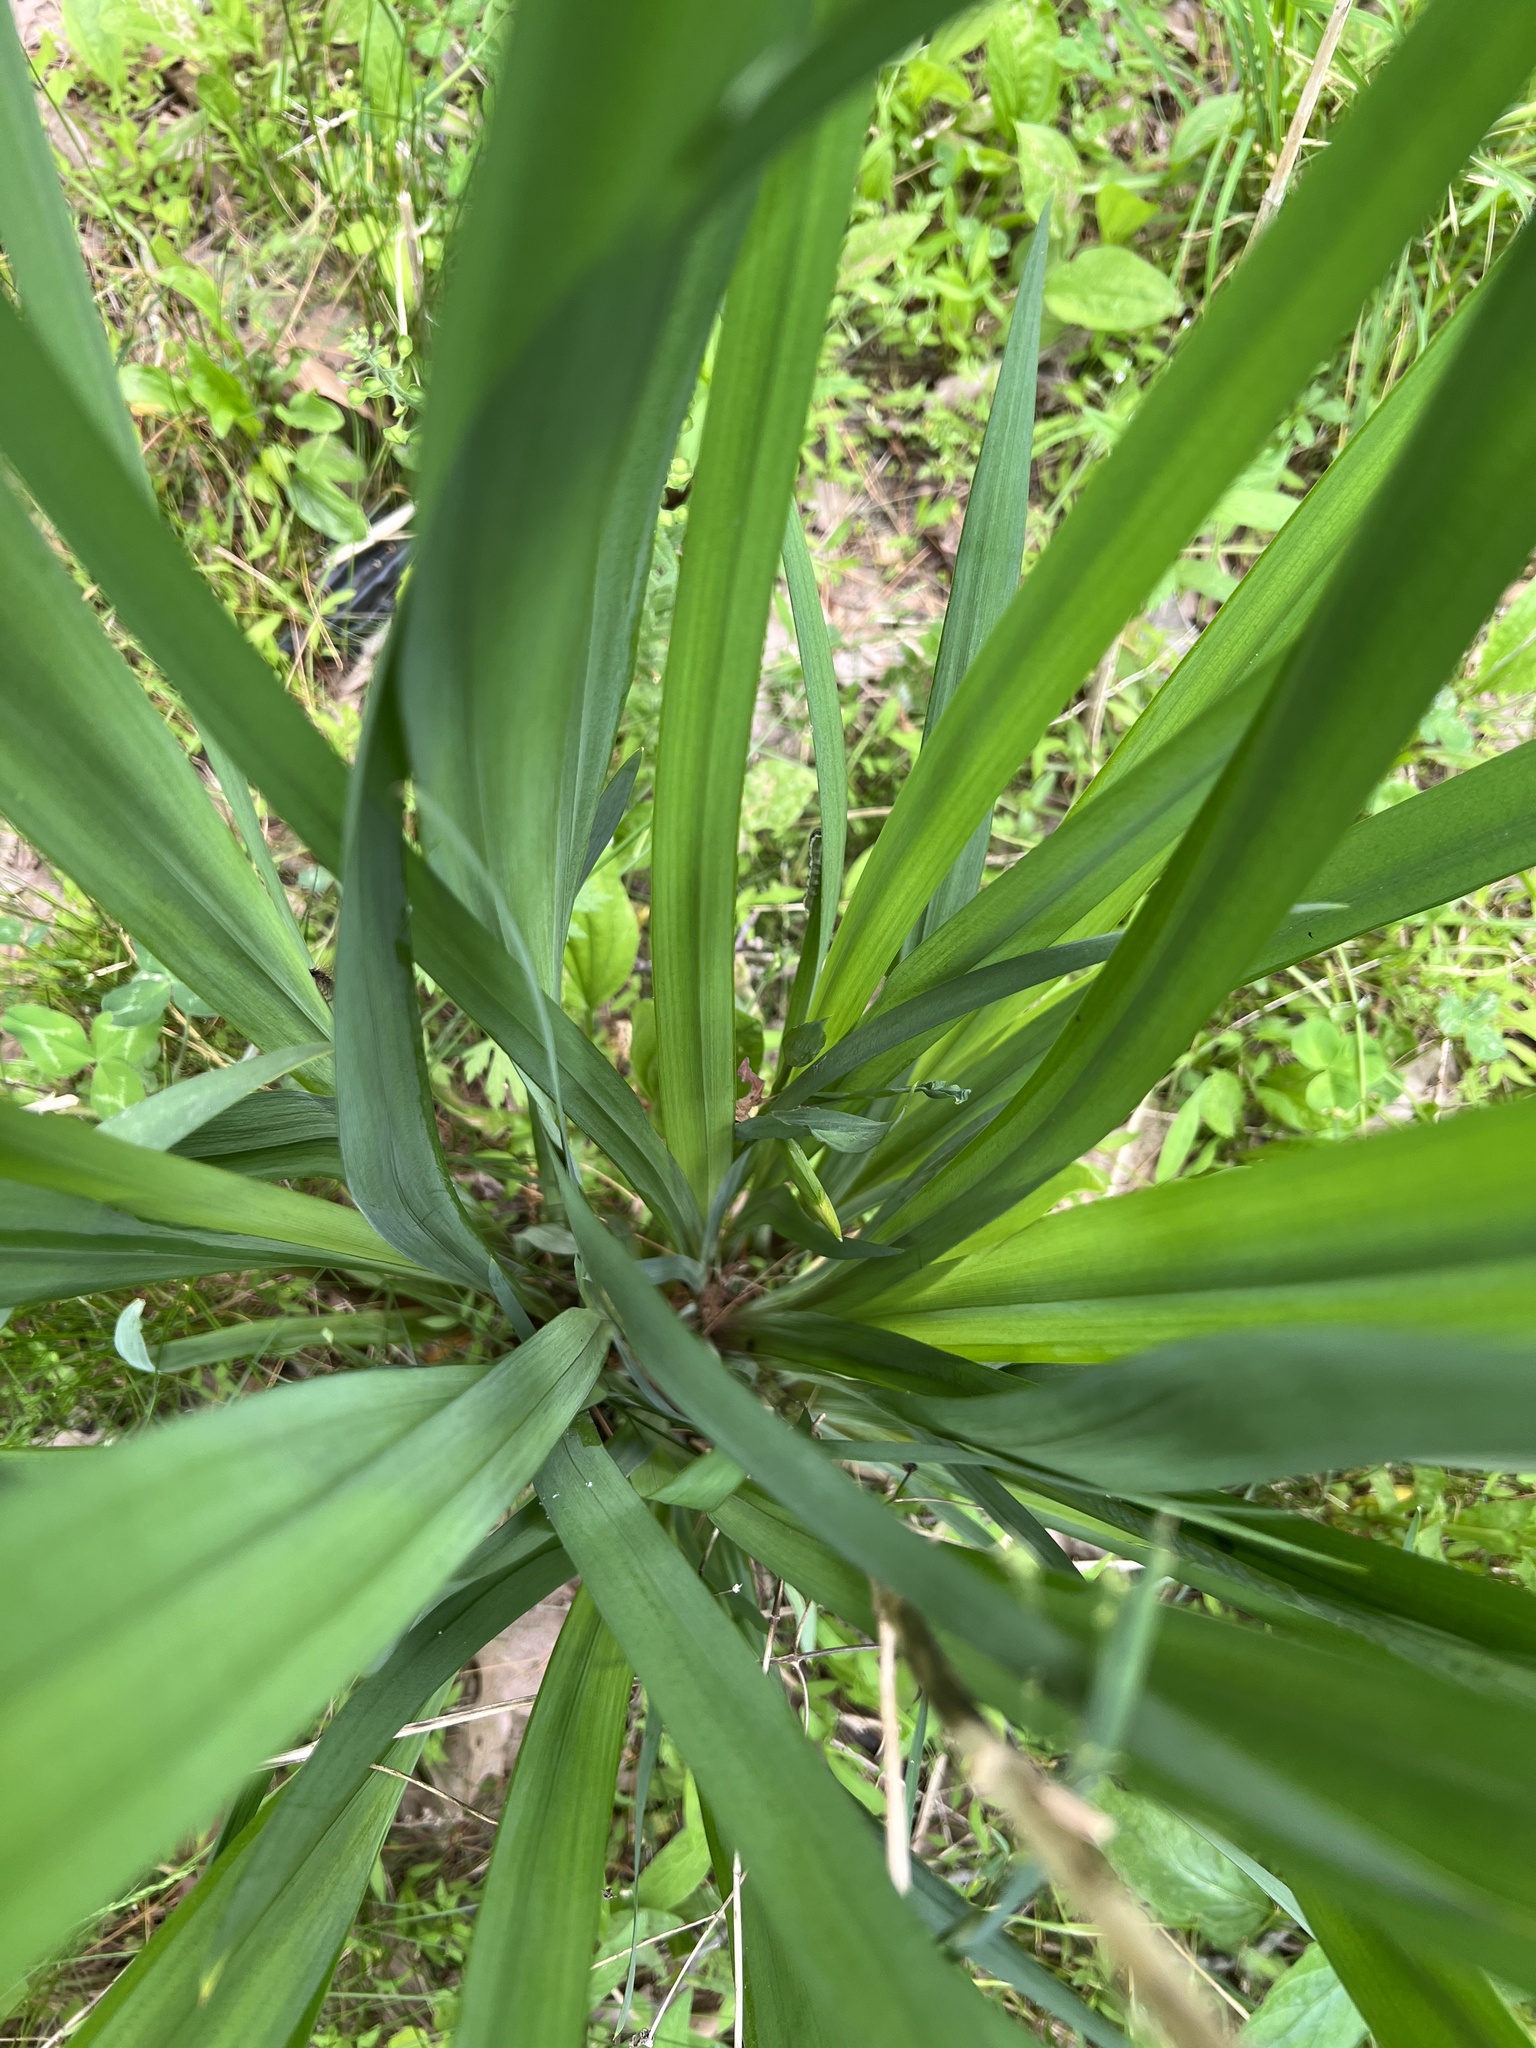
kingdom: Plantae
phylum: Tracheophyta
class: Liliopsida
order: Asparagales
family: Iridaceae
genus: Iris
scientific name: Iris pseudacorus
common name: Yellow flag
